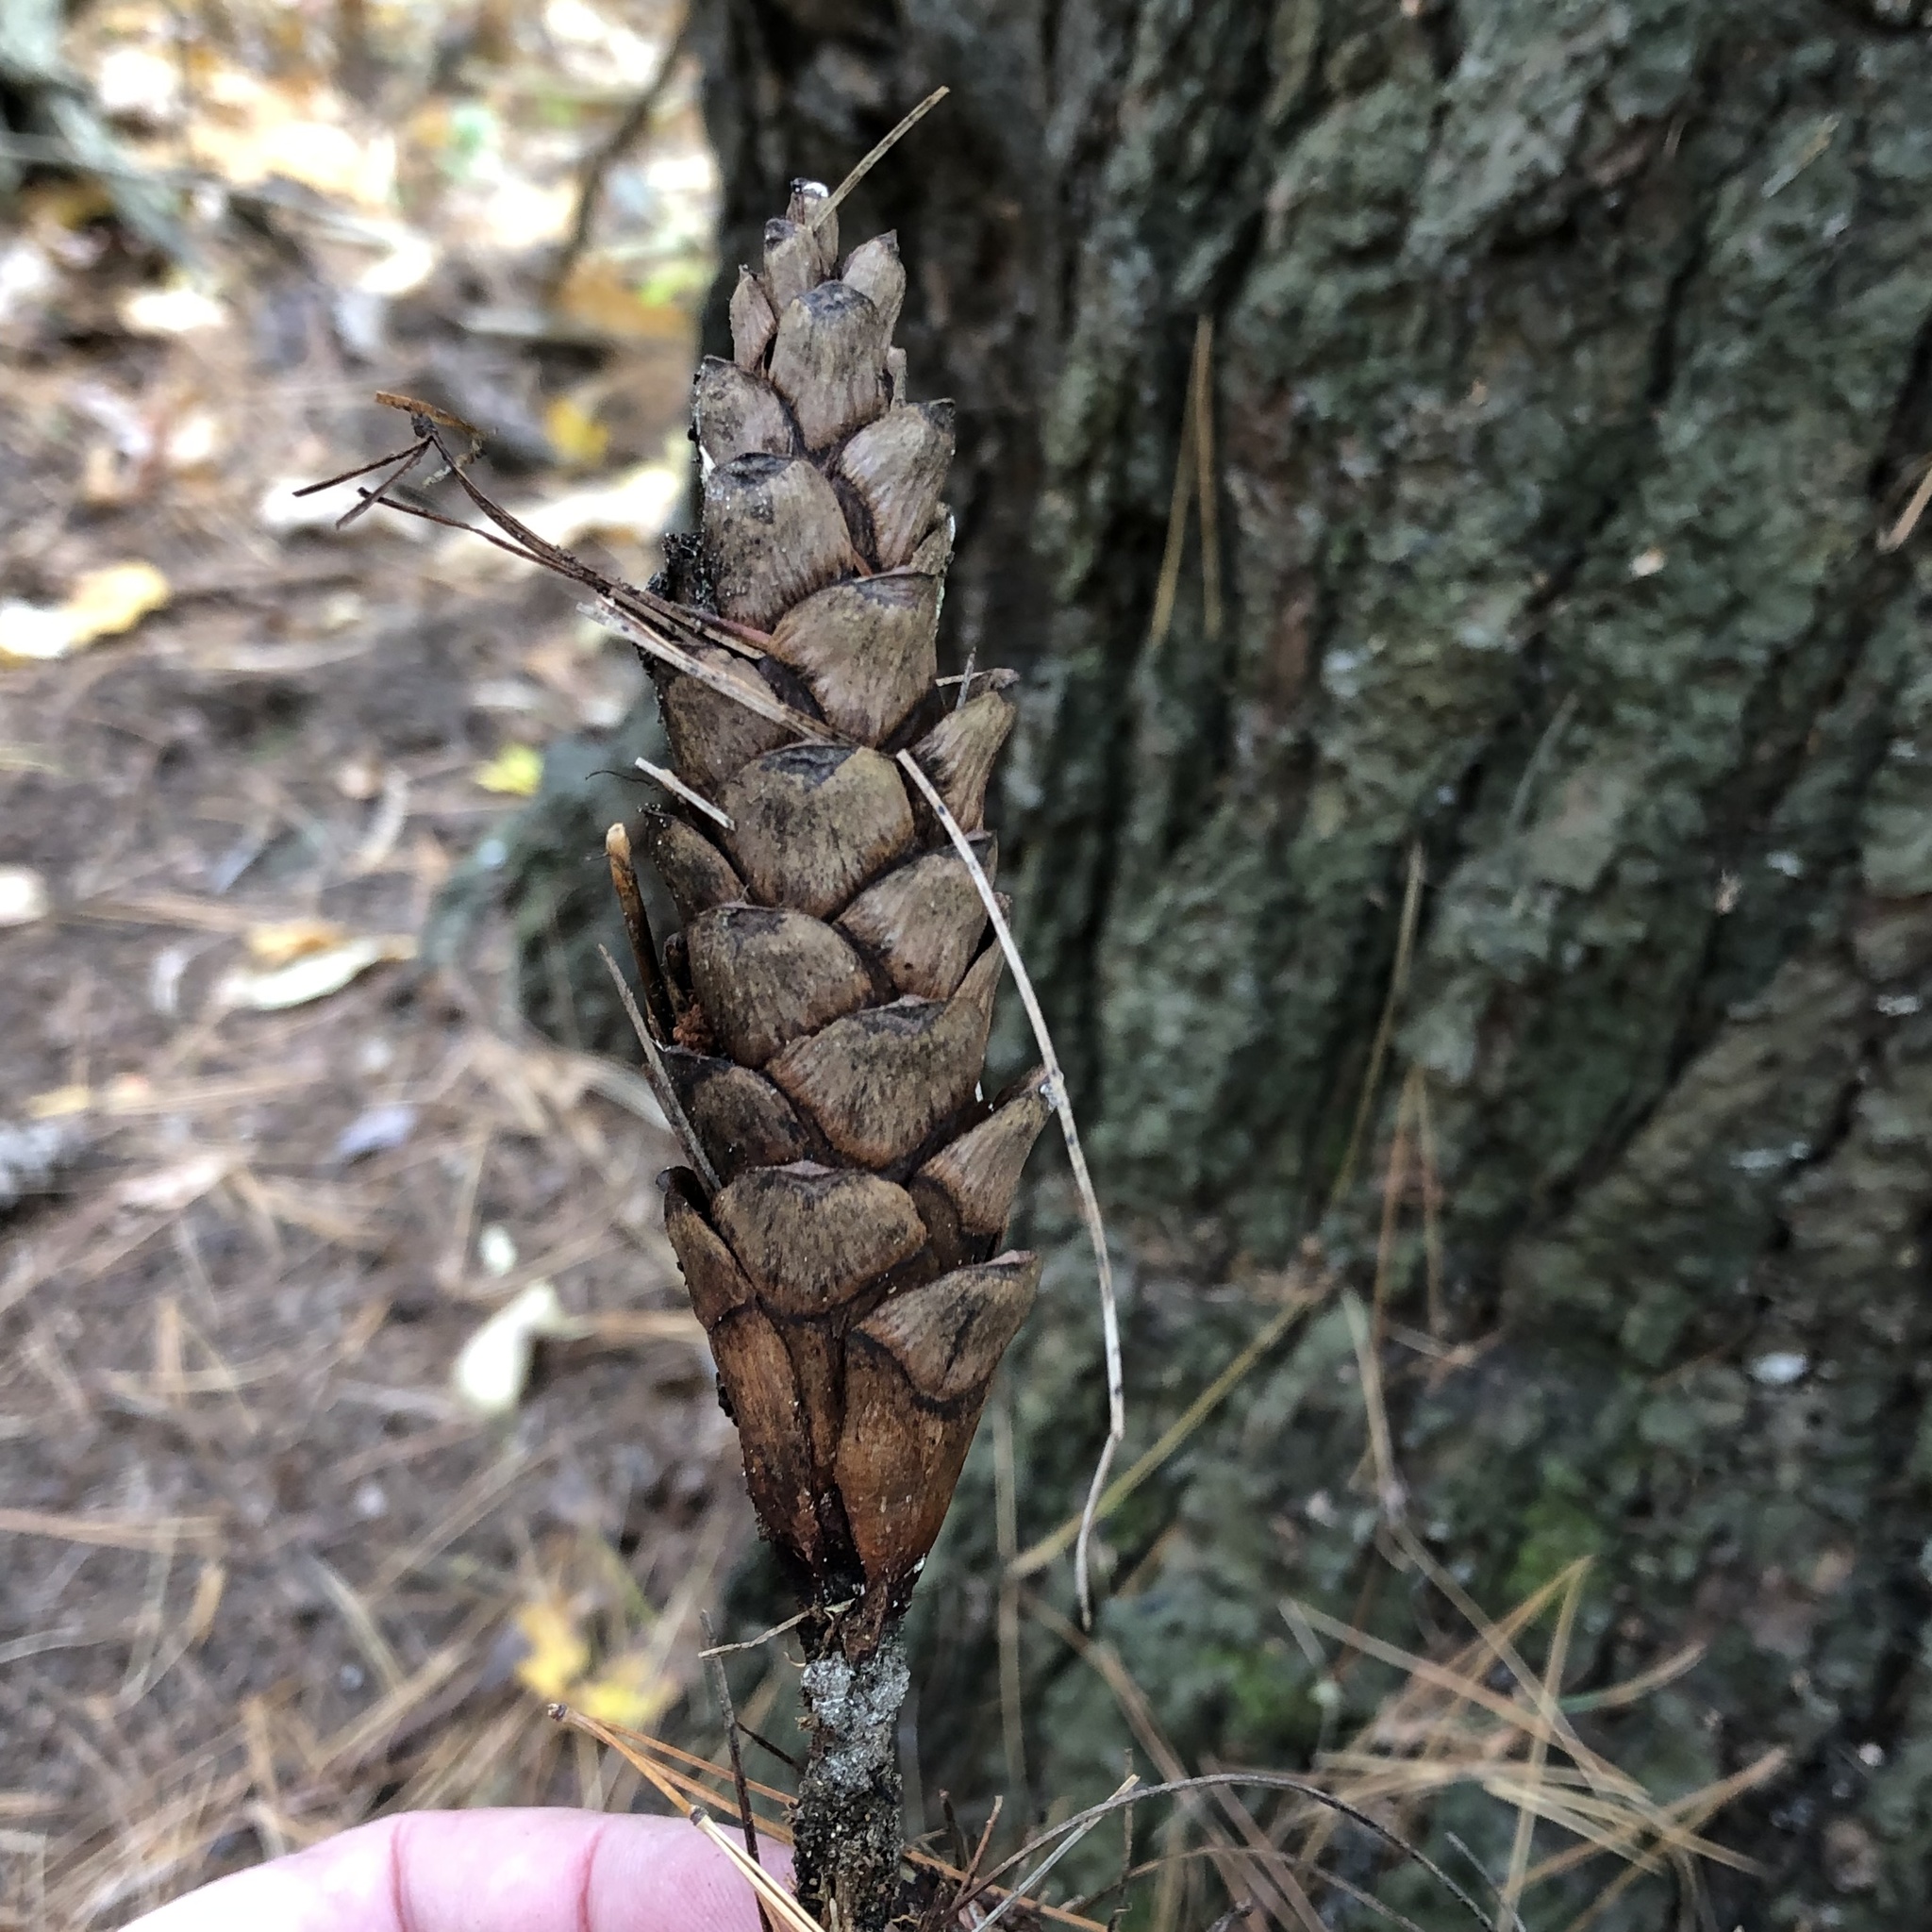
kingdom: Plantae
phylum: Tracheophyta
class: Pinopsida
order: Pinales
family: Pinaceae
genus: Pinus
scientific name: Pinus strobus
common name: Weymouth pine
